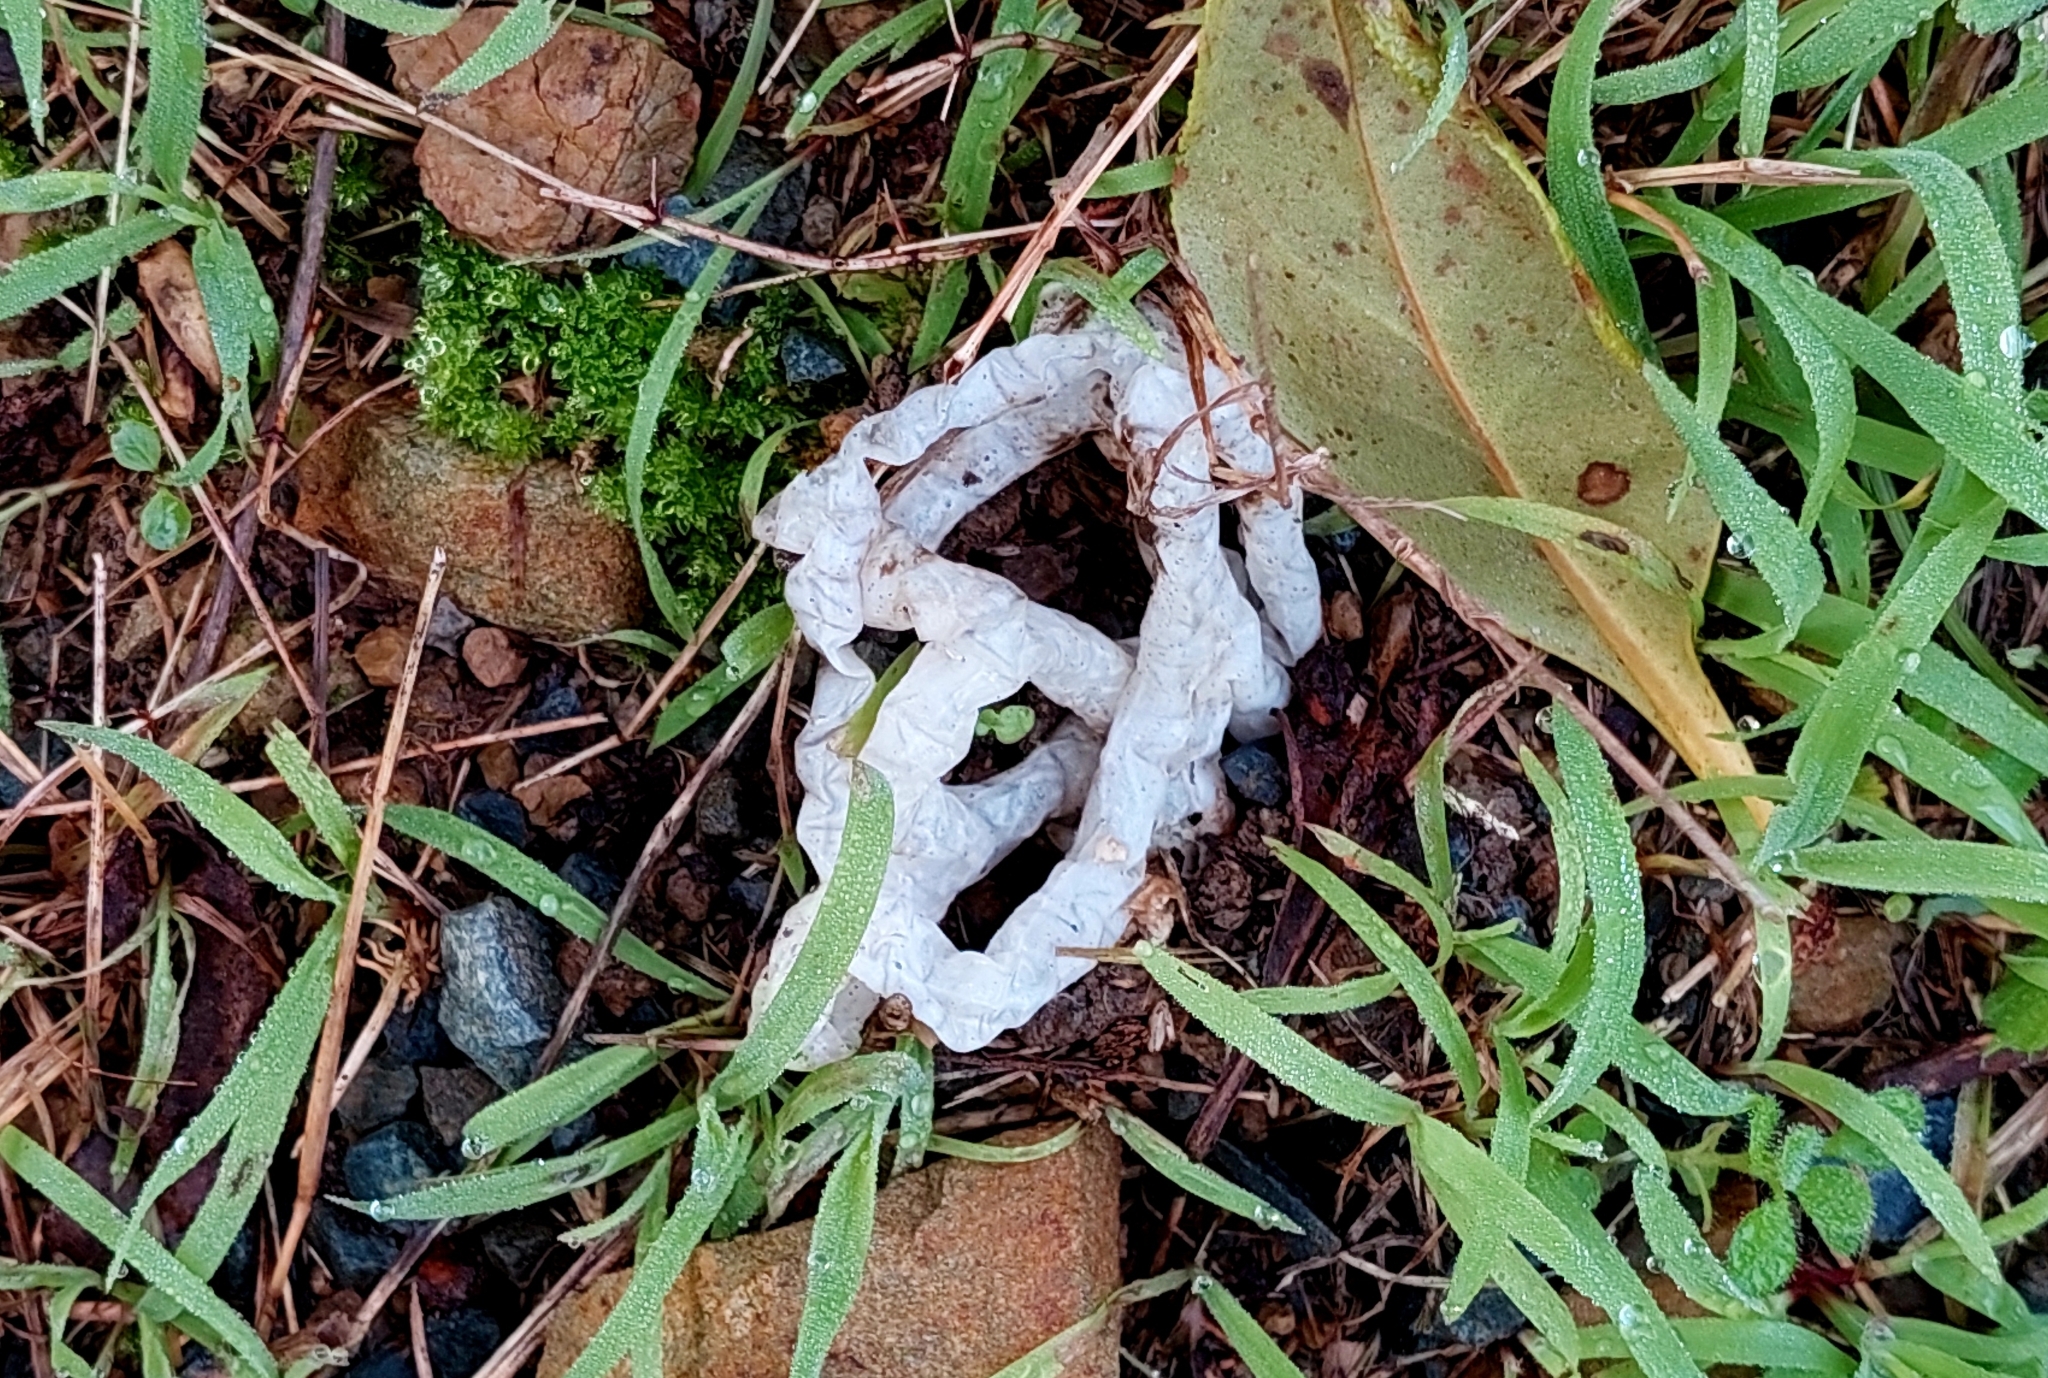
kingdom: Fungi
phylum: Basidiomycota
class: Agaricomycetes
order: Phallales
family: Phallaceae
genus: Ileodictyon
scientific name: Ileodictyon cibarium
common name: Basket fungus
